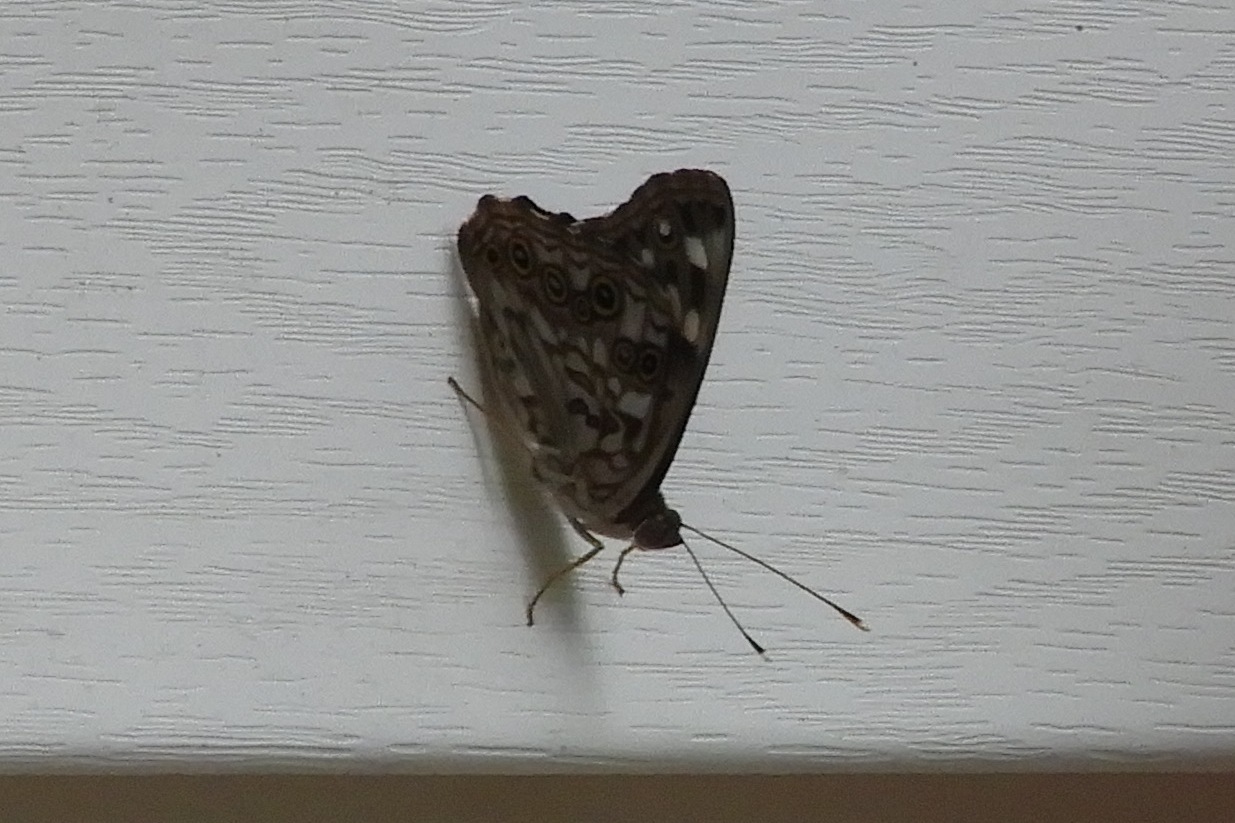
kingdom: Animalia
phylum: Arthropoda
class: Insecta
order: Lepidoptera
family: Nymphalidae
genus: Asterocampa
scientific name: Asterocampa celtis
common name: Hackberry emperor
